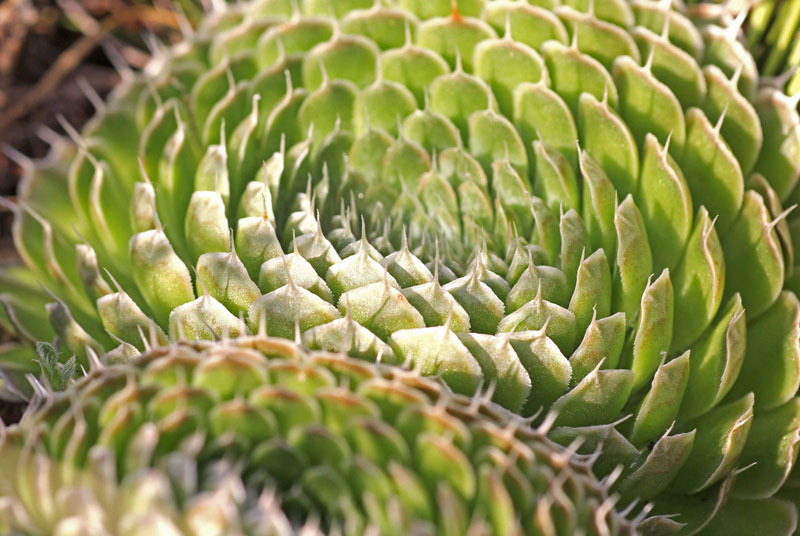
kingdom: Plantae
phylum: Tracheophyta
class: Magnoliopsida
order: Saxifragales
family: Crassulaceae
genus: Orostachys
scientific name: Orostachys spinosa
